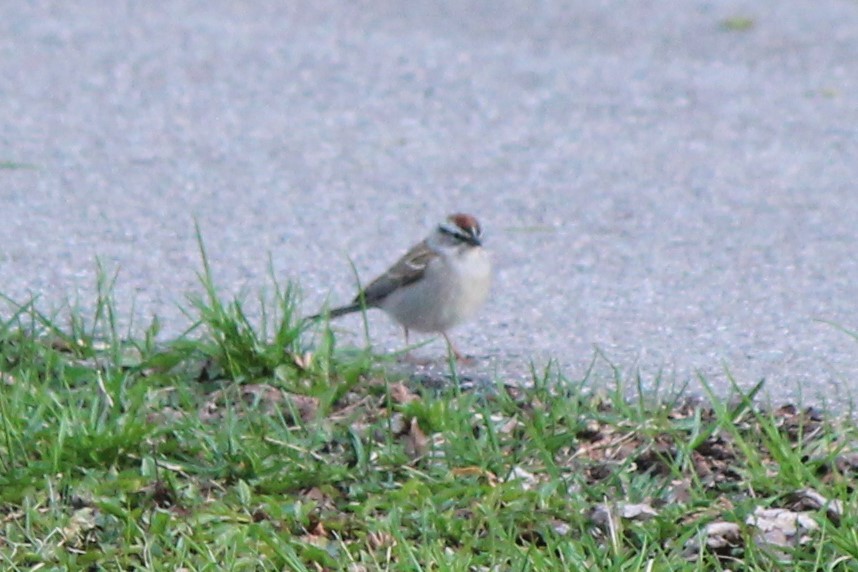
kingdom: Animalia
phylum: Chordata
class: Aves
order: Passeriformes
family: Passerellidae
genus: Spizella
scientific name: Spizella passerina
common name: Chipping sparrow
